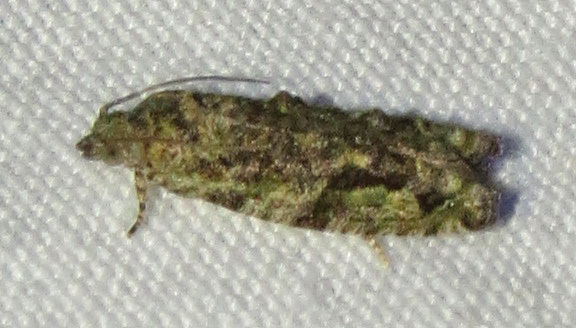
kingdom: Animalia
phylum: Arthropoda
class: Insecta
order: Lepidoptera
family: Tortricidae
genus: Proteoteras
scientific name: Proteoteras aesculana
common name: Maple twig borer moth
